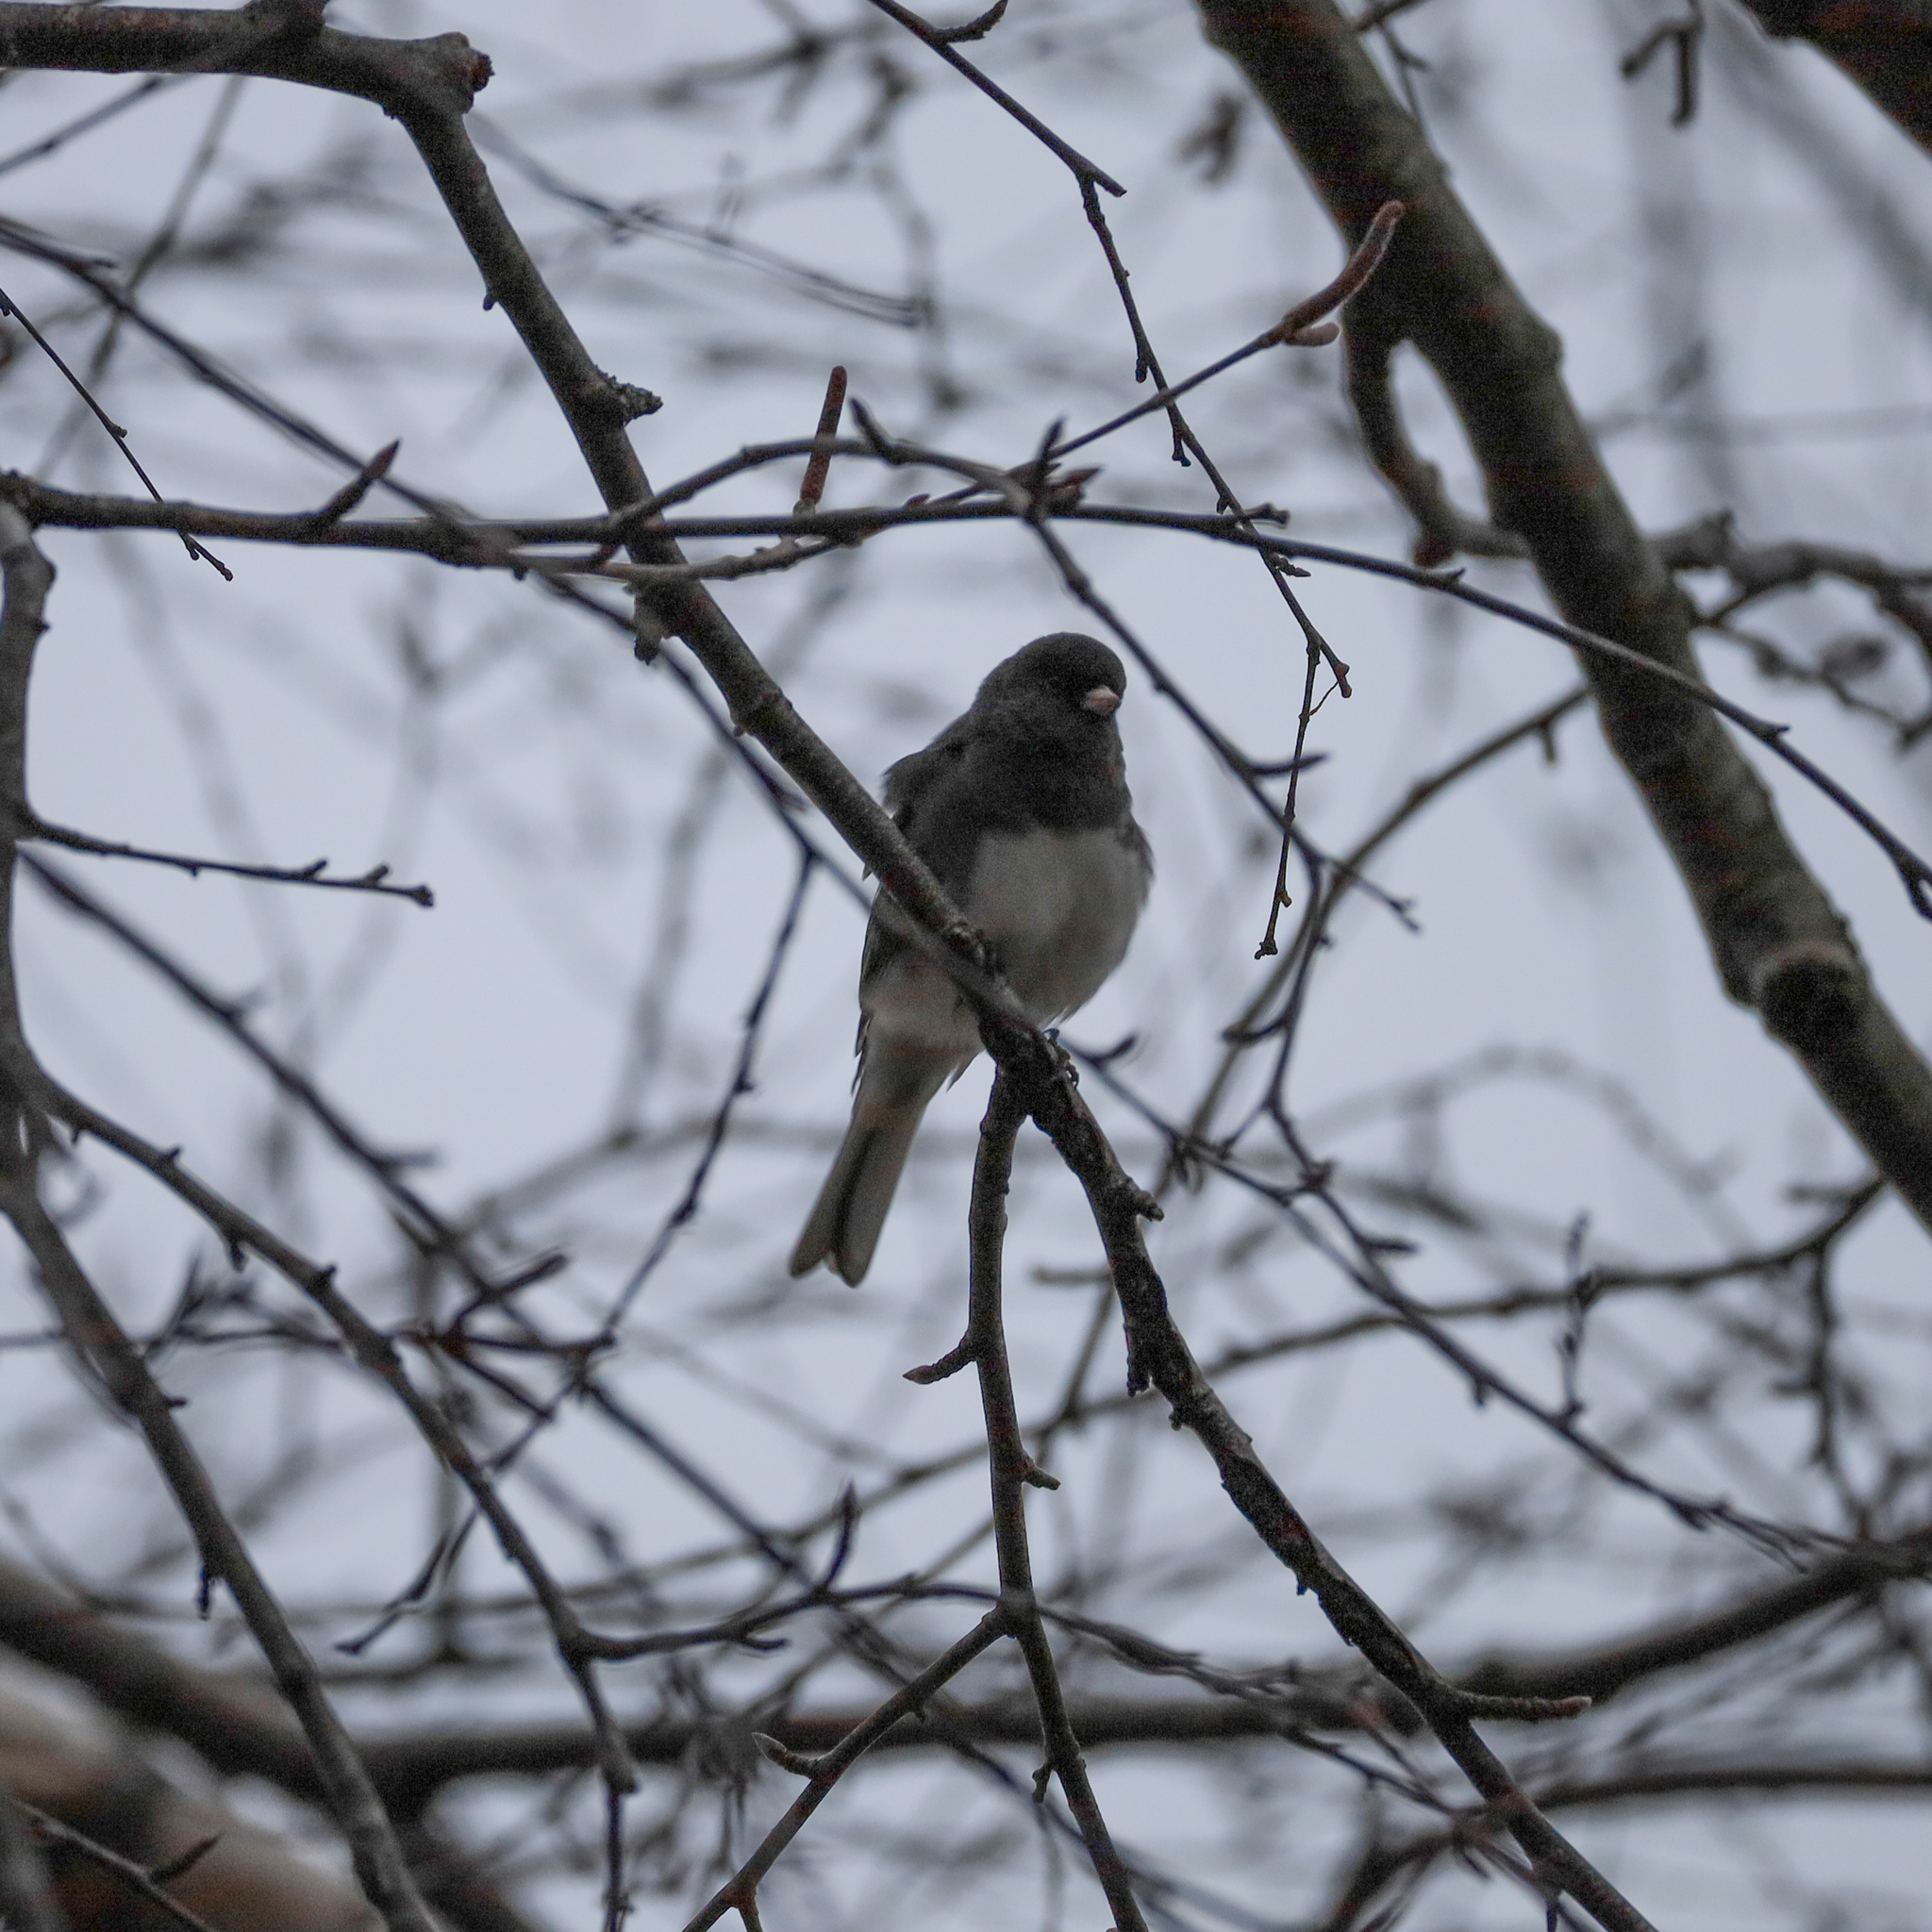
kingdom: Animalia
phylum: Chordata
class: Aves
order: Passeriformes
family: Passerellidae
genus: Junco
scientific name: Junco hyemalis
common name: Dark-eyed junco
